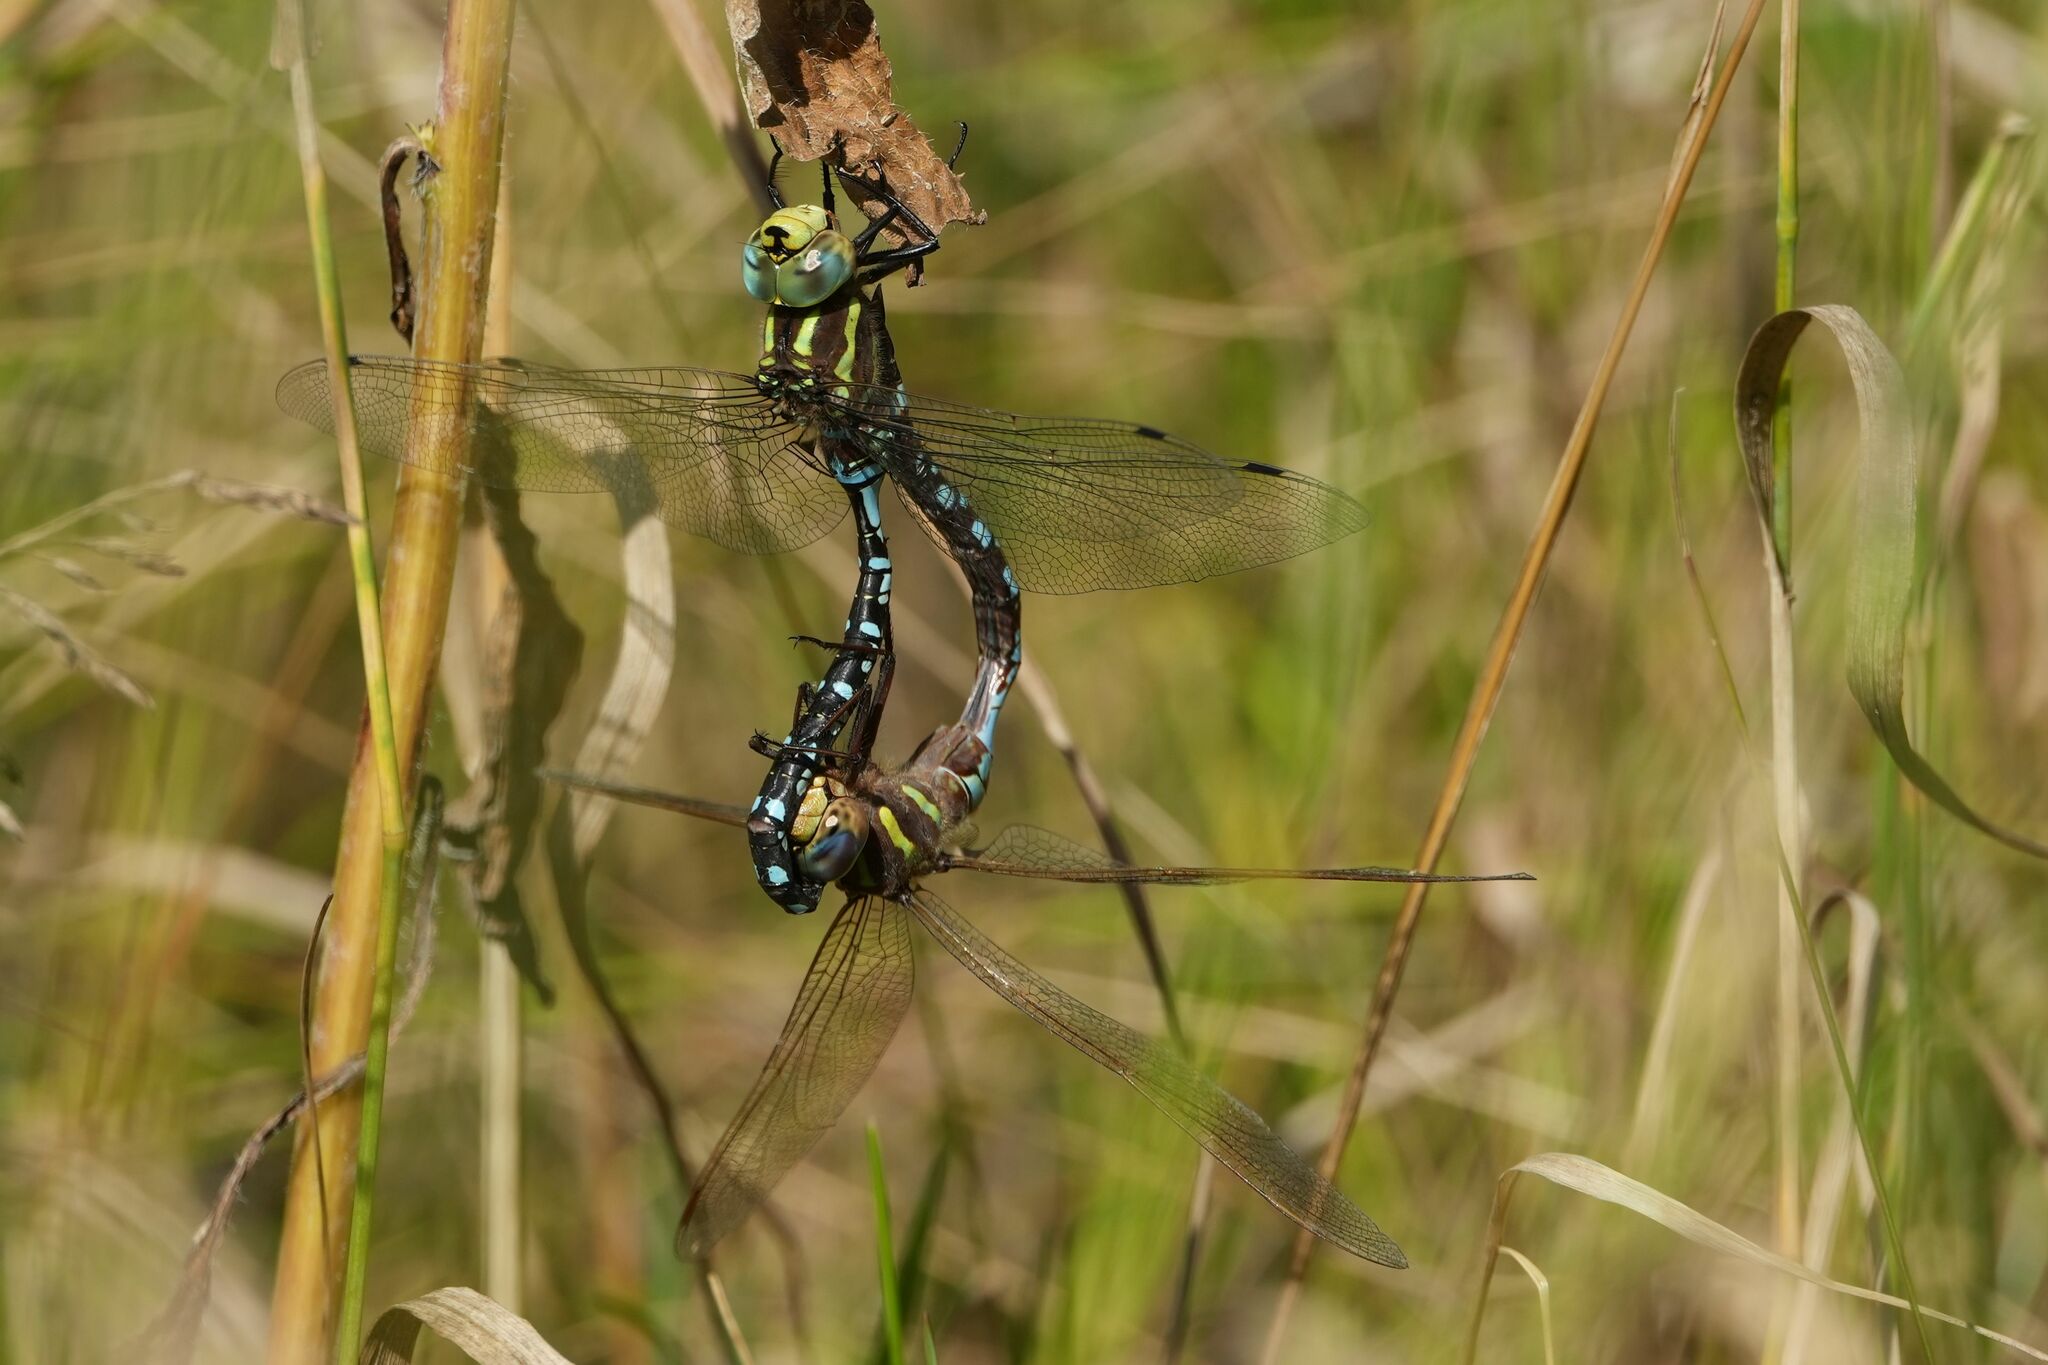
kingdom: Animalia
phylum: Arthropoda
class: Insecta
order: Odonata
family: Aeshnidae
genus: Aeshna
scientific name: Aeshna constricta
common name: Lance-tipped darner
